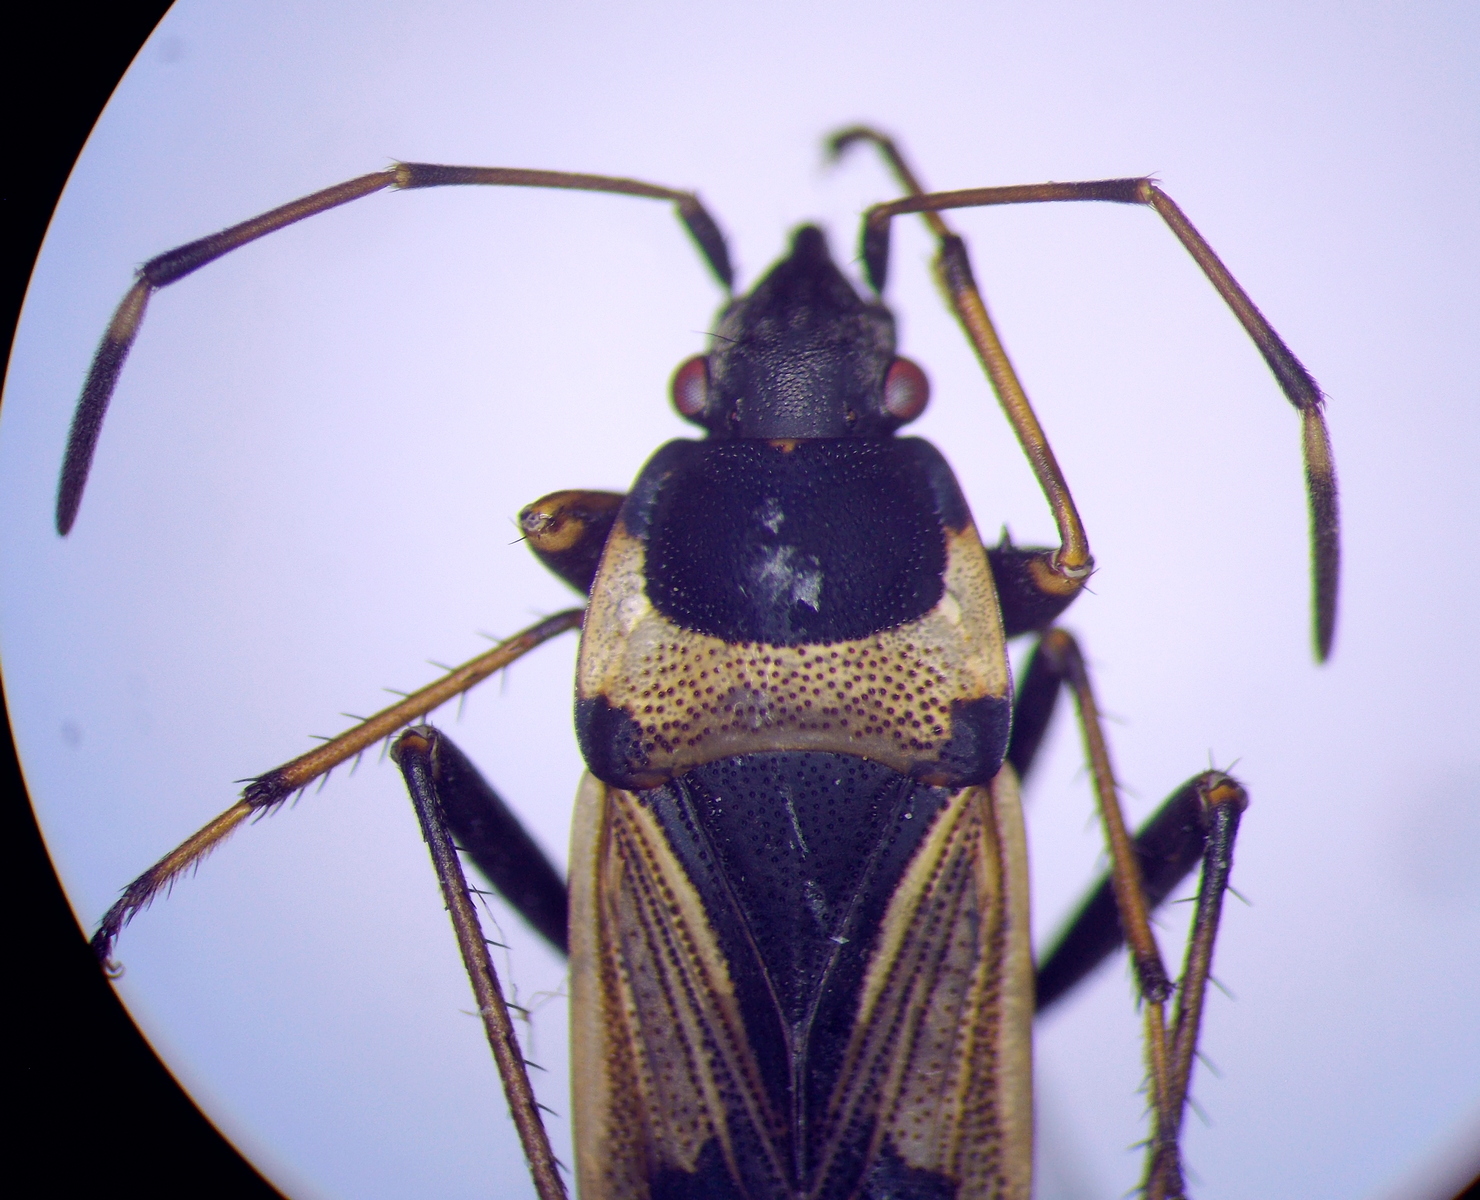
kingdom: Animalia
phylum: Arthropoda
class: Insecta
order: Hemiptera
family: Rhyparochromidae
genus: Raglius
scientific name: Raglius confusus
